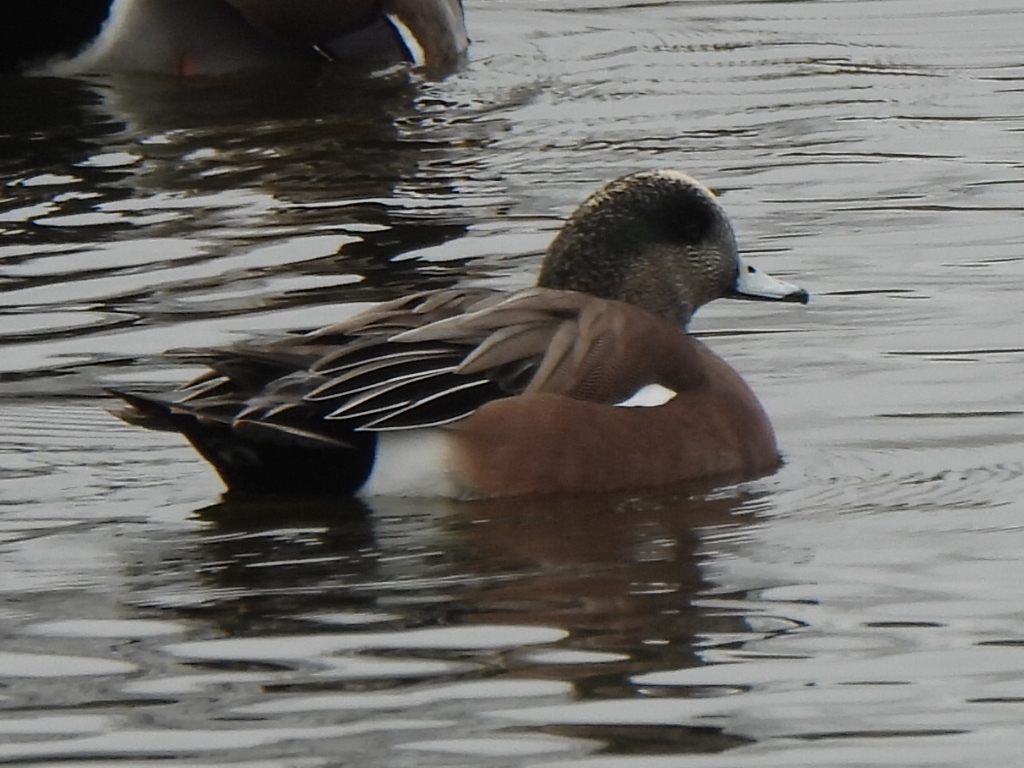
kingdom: Animalia
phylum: Chordata
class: Aves
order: Anseriformes
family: Anatidae
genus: Mareca
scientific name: Mareca americana
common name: American wigeon
